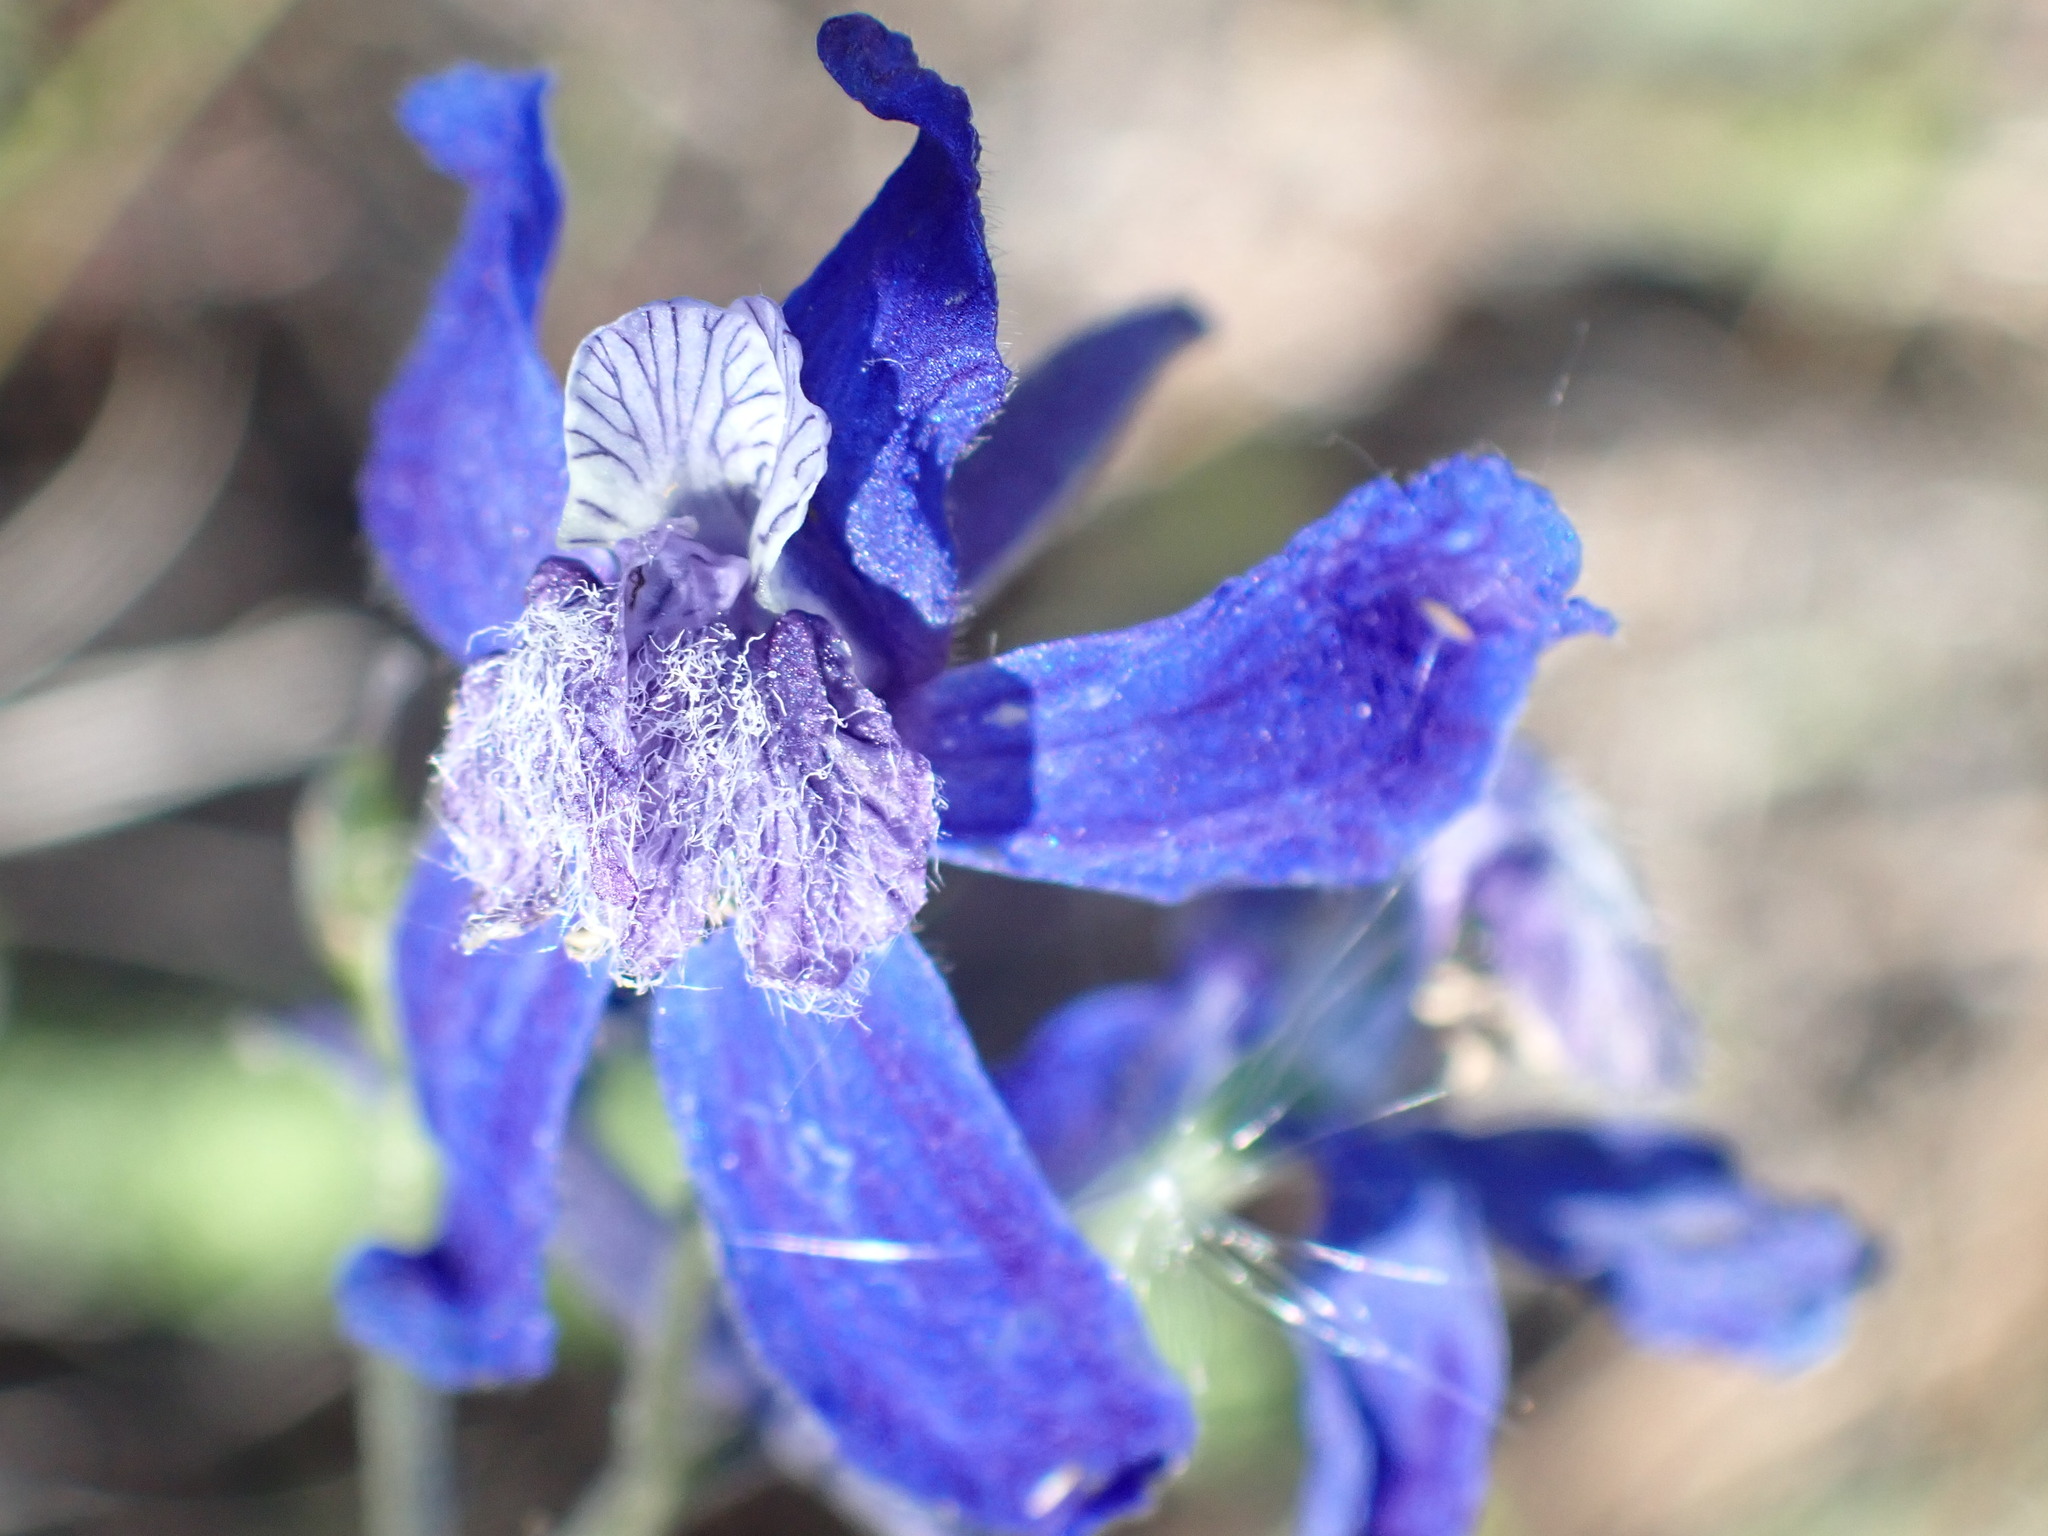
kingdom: Plantae
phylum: Tracheophyta
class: Magnoliopsida
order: Ranunculales
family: Ranunculaceae
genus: Delphinium
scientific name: Delphinium nuttallianum
